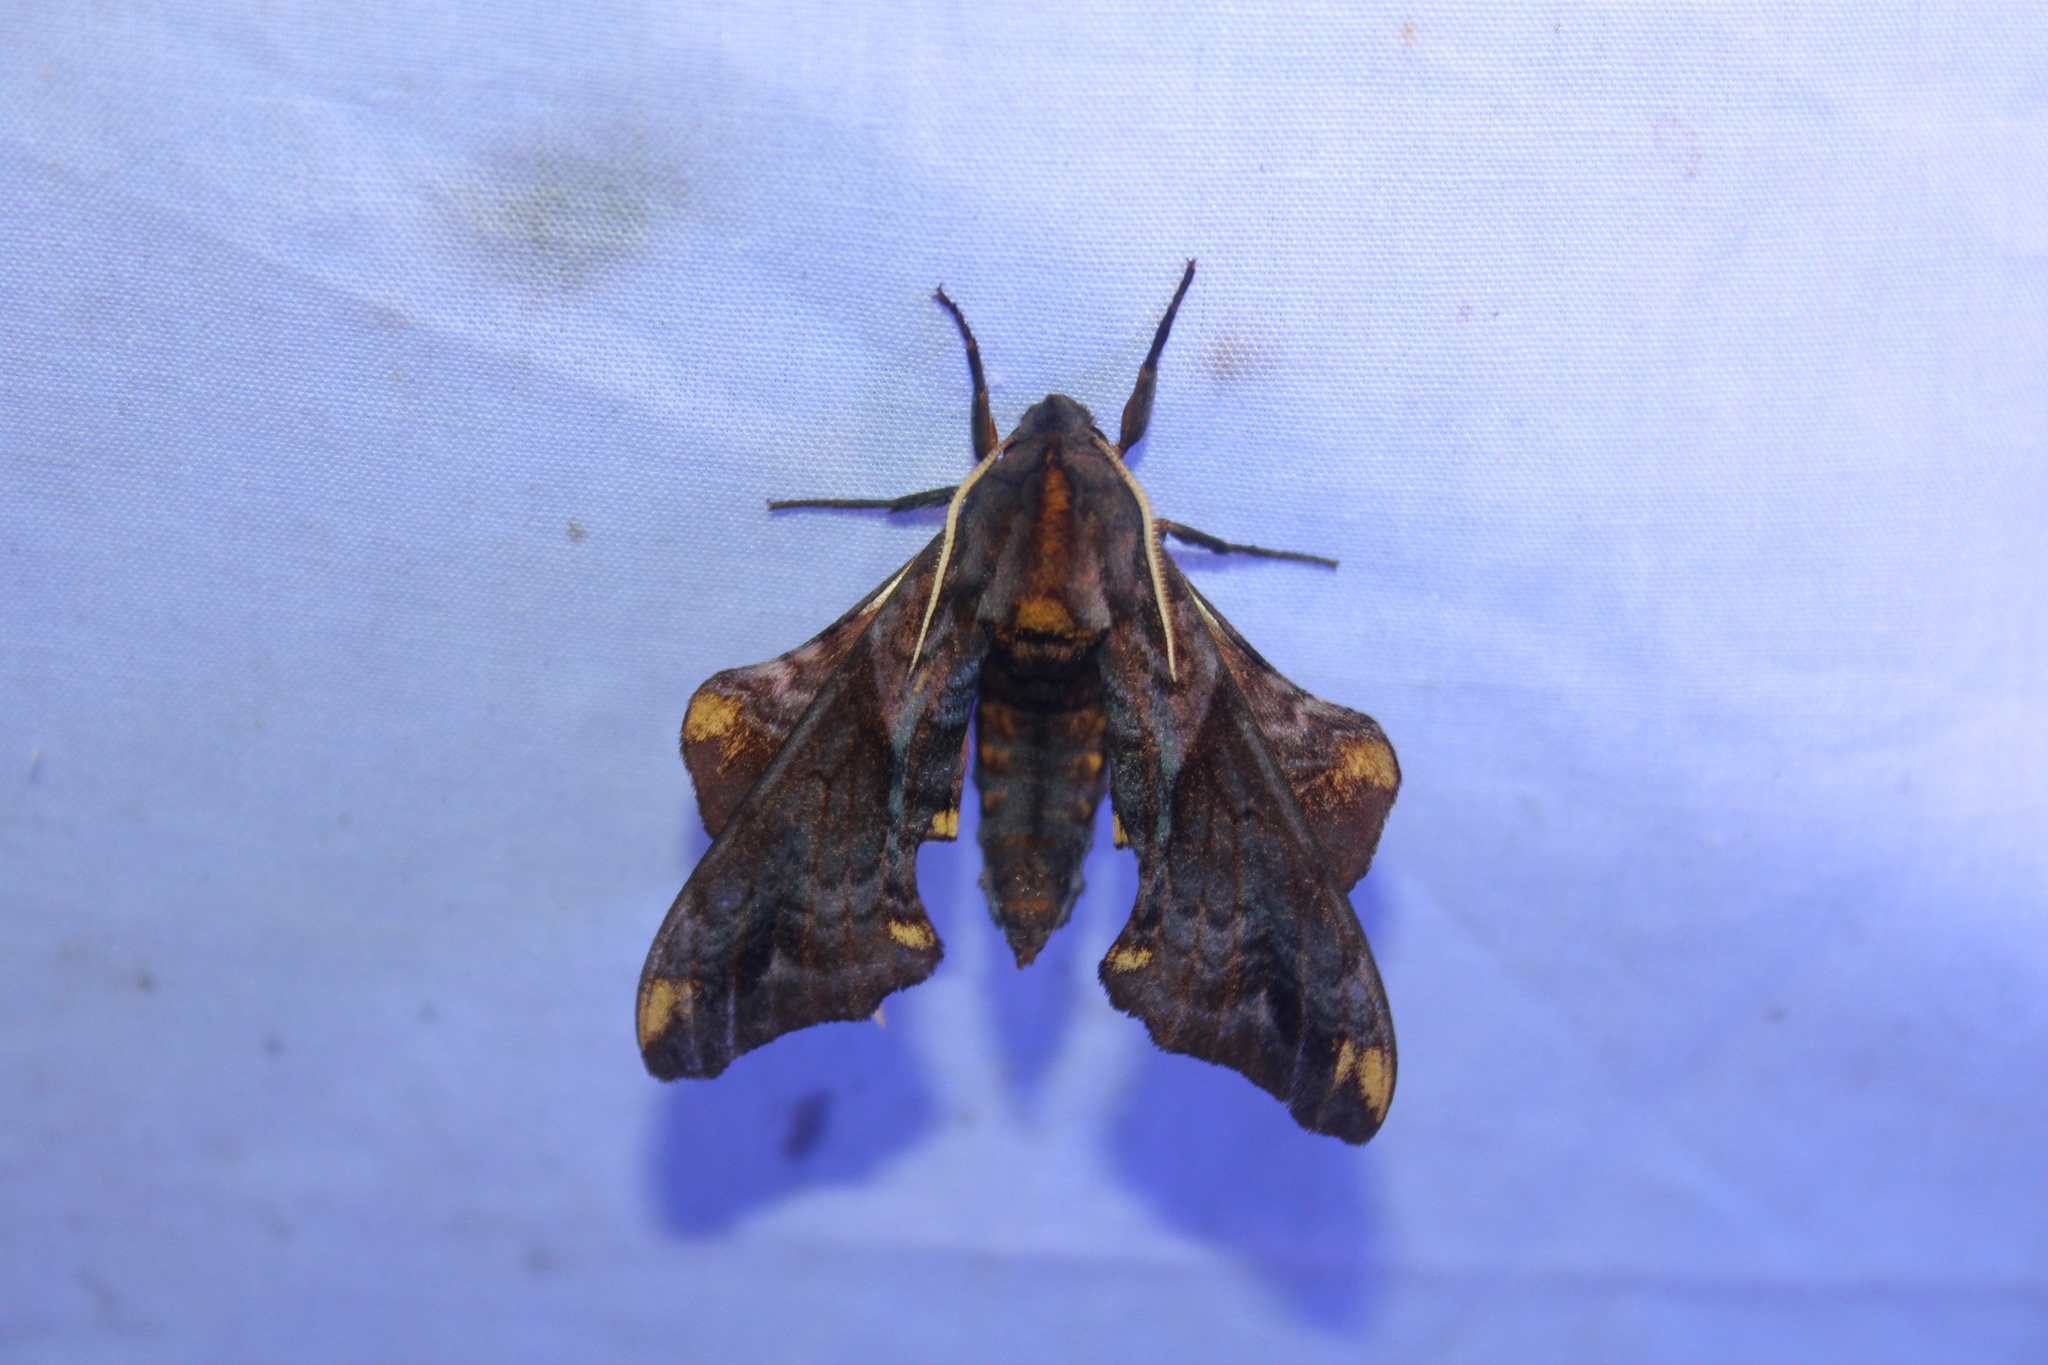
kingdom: Animalia
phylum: Arthropoda
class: Insecta
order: Lepidoptera
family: Sphingidae
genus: Paonias
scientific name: Paonias myops
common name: Small-eyed sphinx
